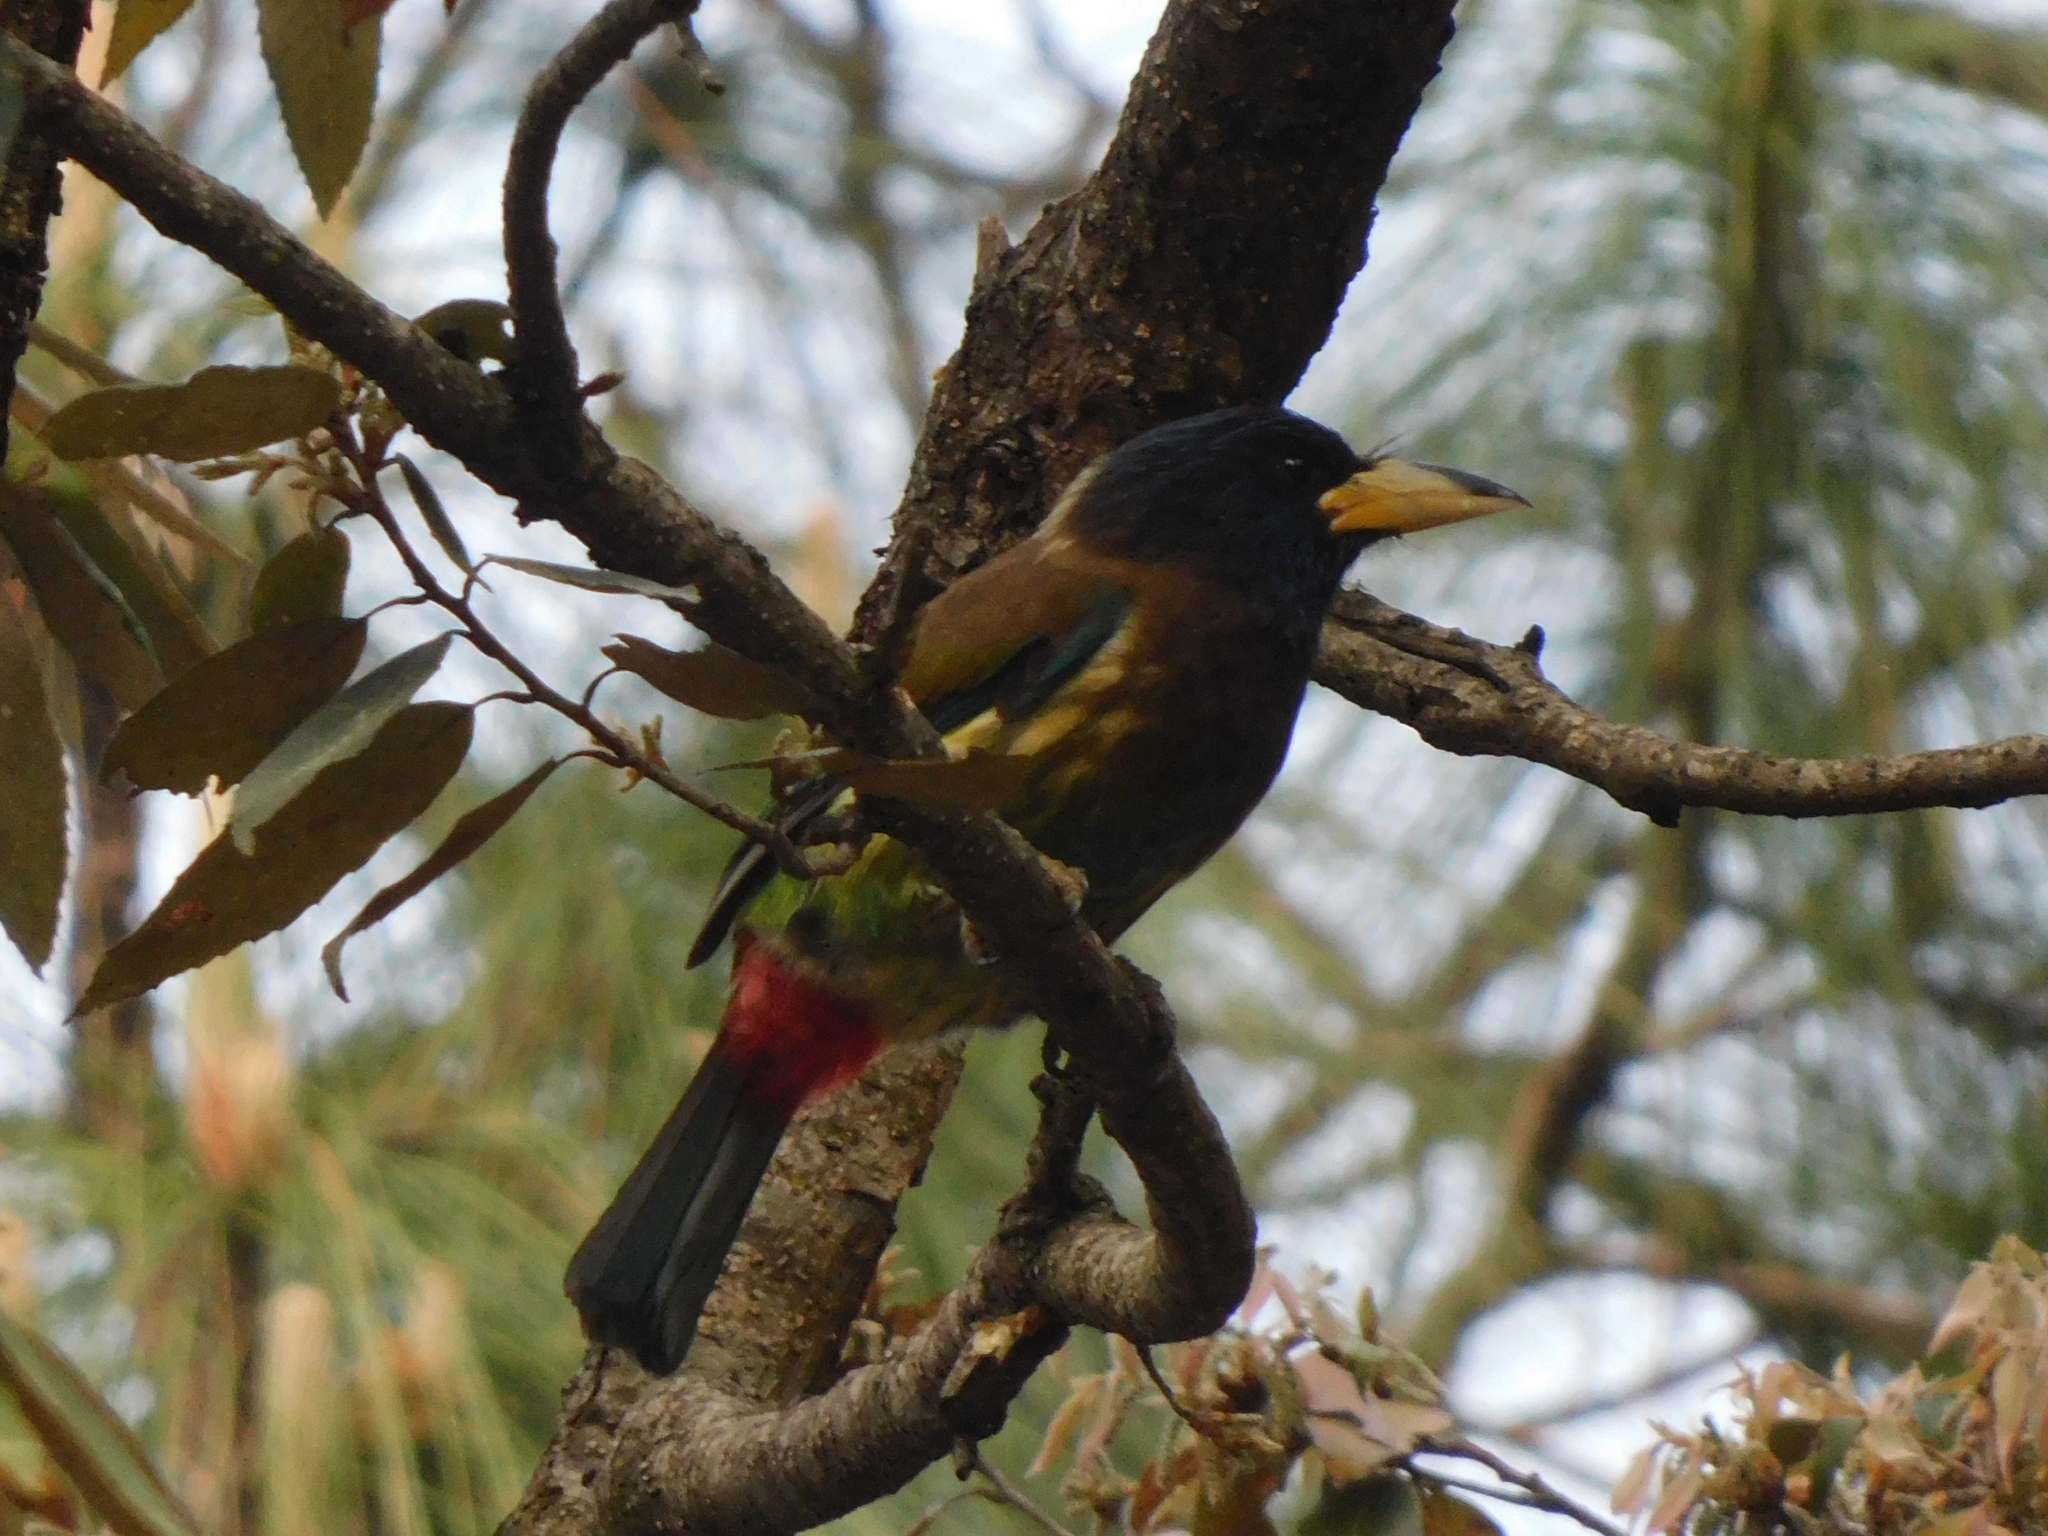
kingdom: Animalia
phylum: Chordata
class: Aves
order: Piciformes
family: Megalaimidae
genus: Psilopogon
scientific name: Psilopogon virens
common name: Great barbet
